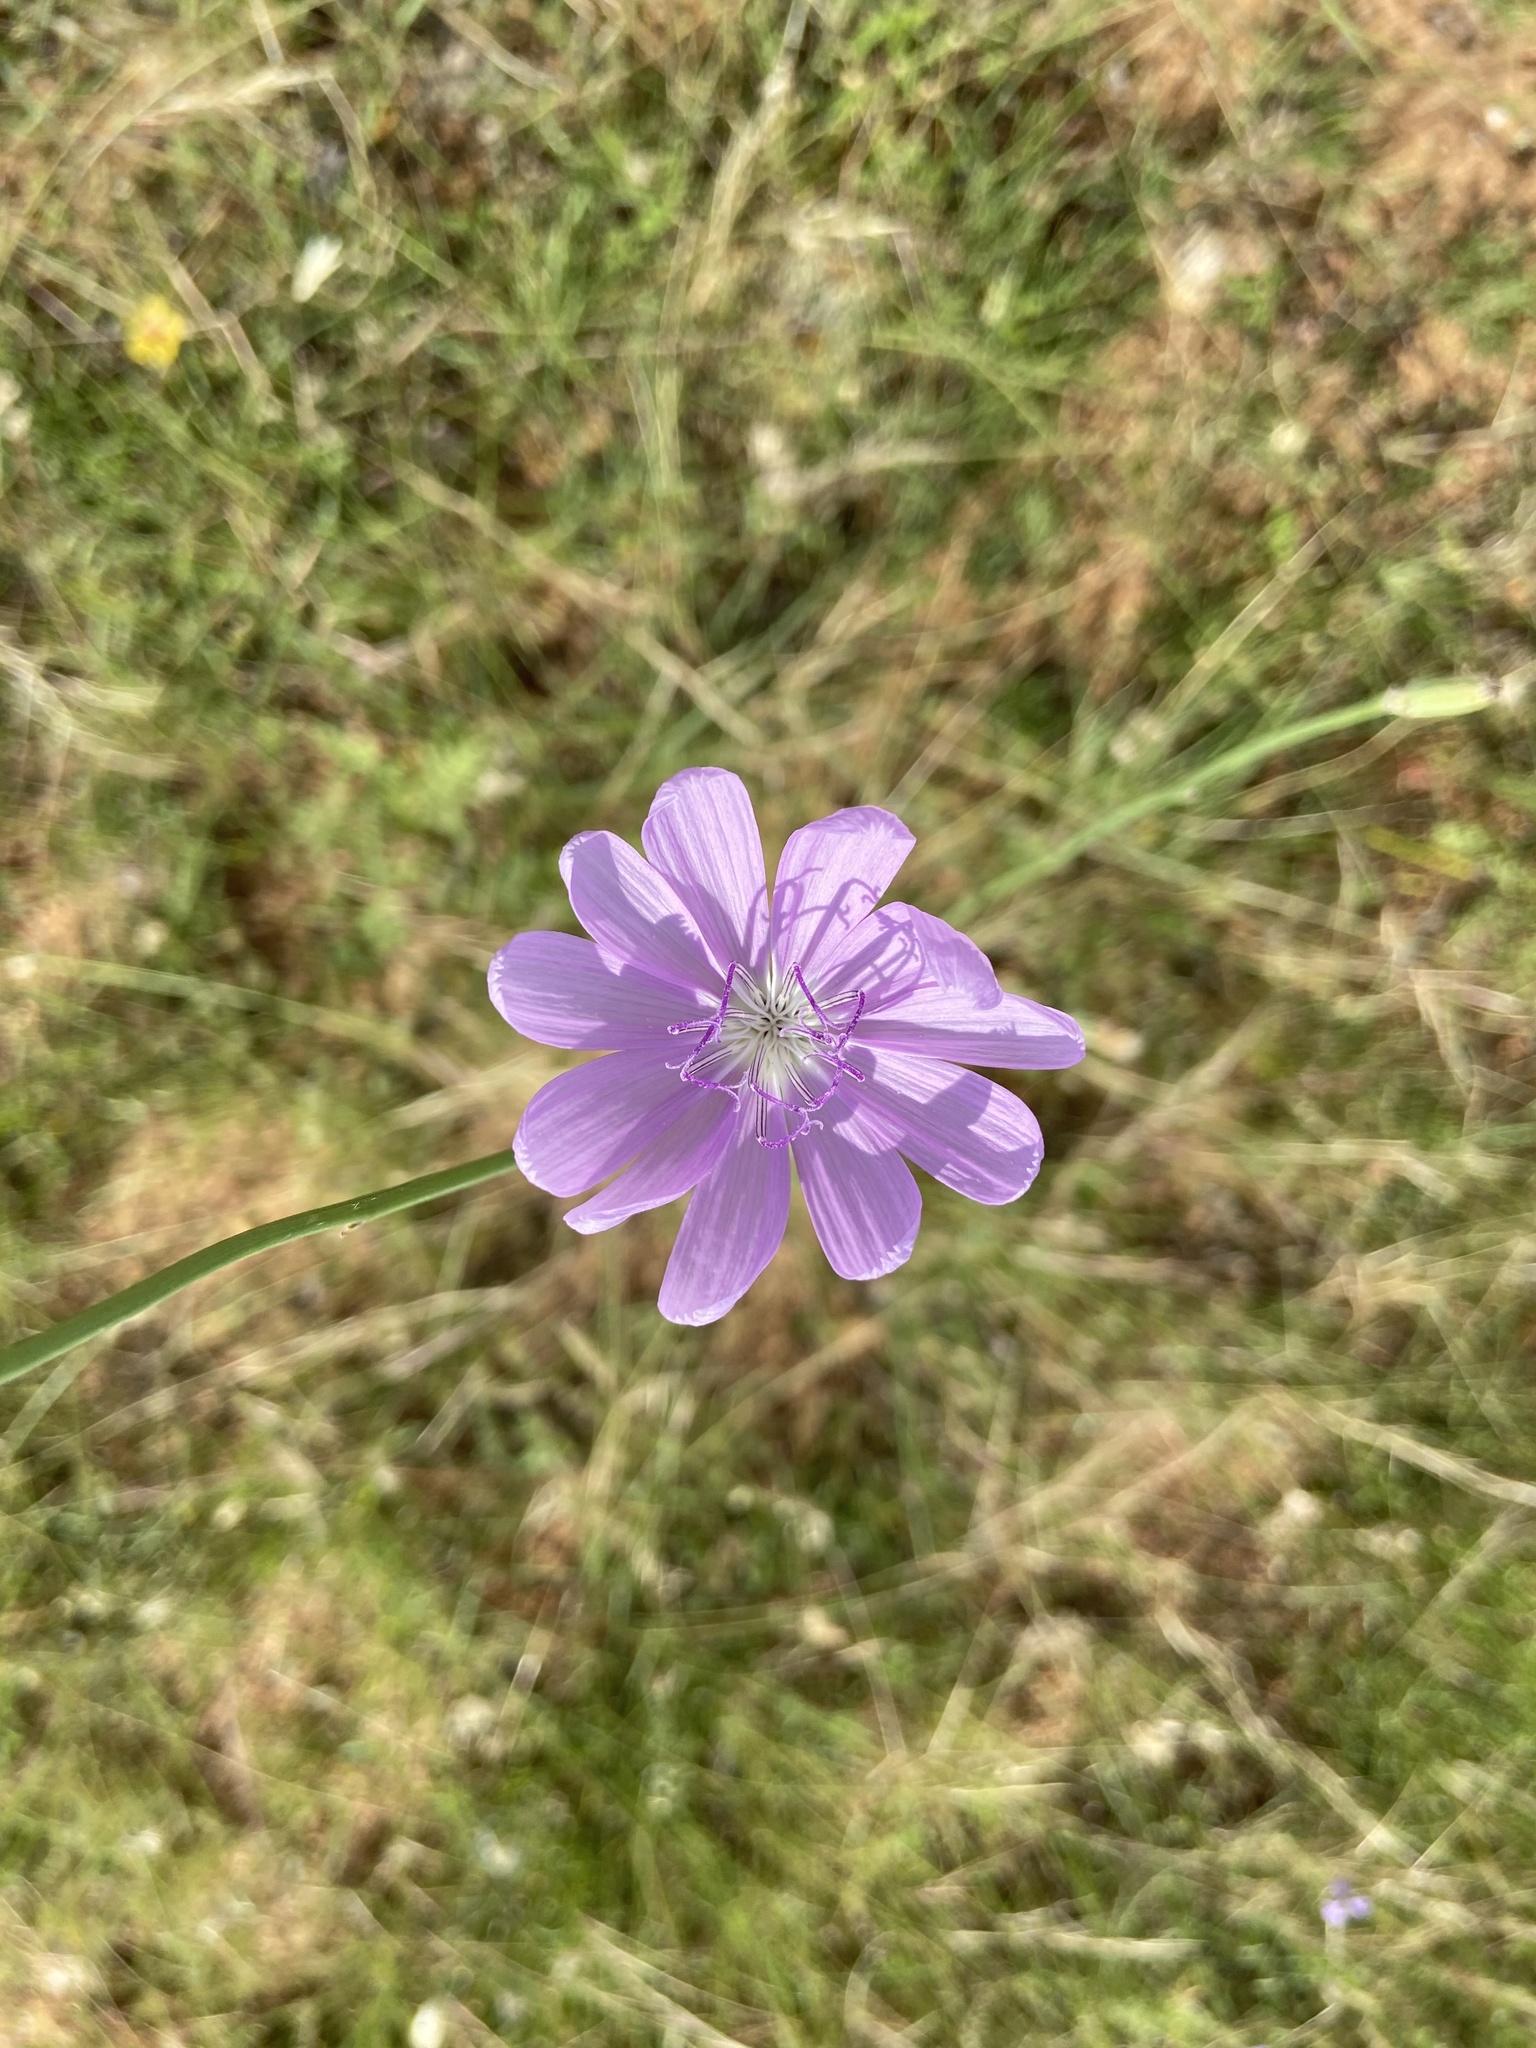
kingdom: Plantae
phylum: Tracheophyta
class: Magnoliopsida
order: Asterales
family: Asteraceae
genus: Lygodesmia
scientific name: Lygodesmia texana
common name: Texas skeleton-plant
